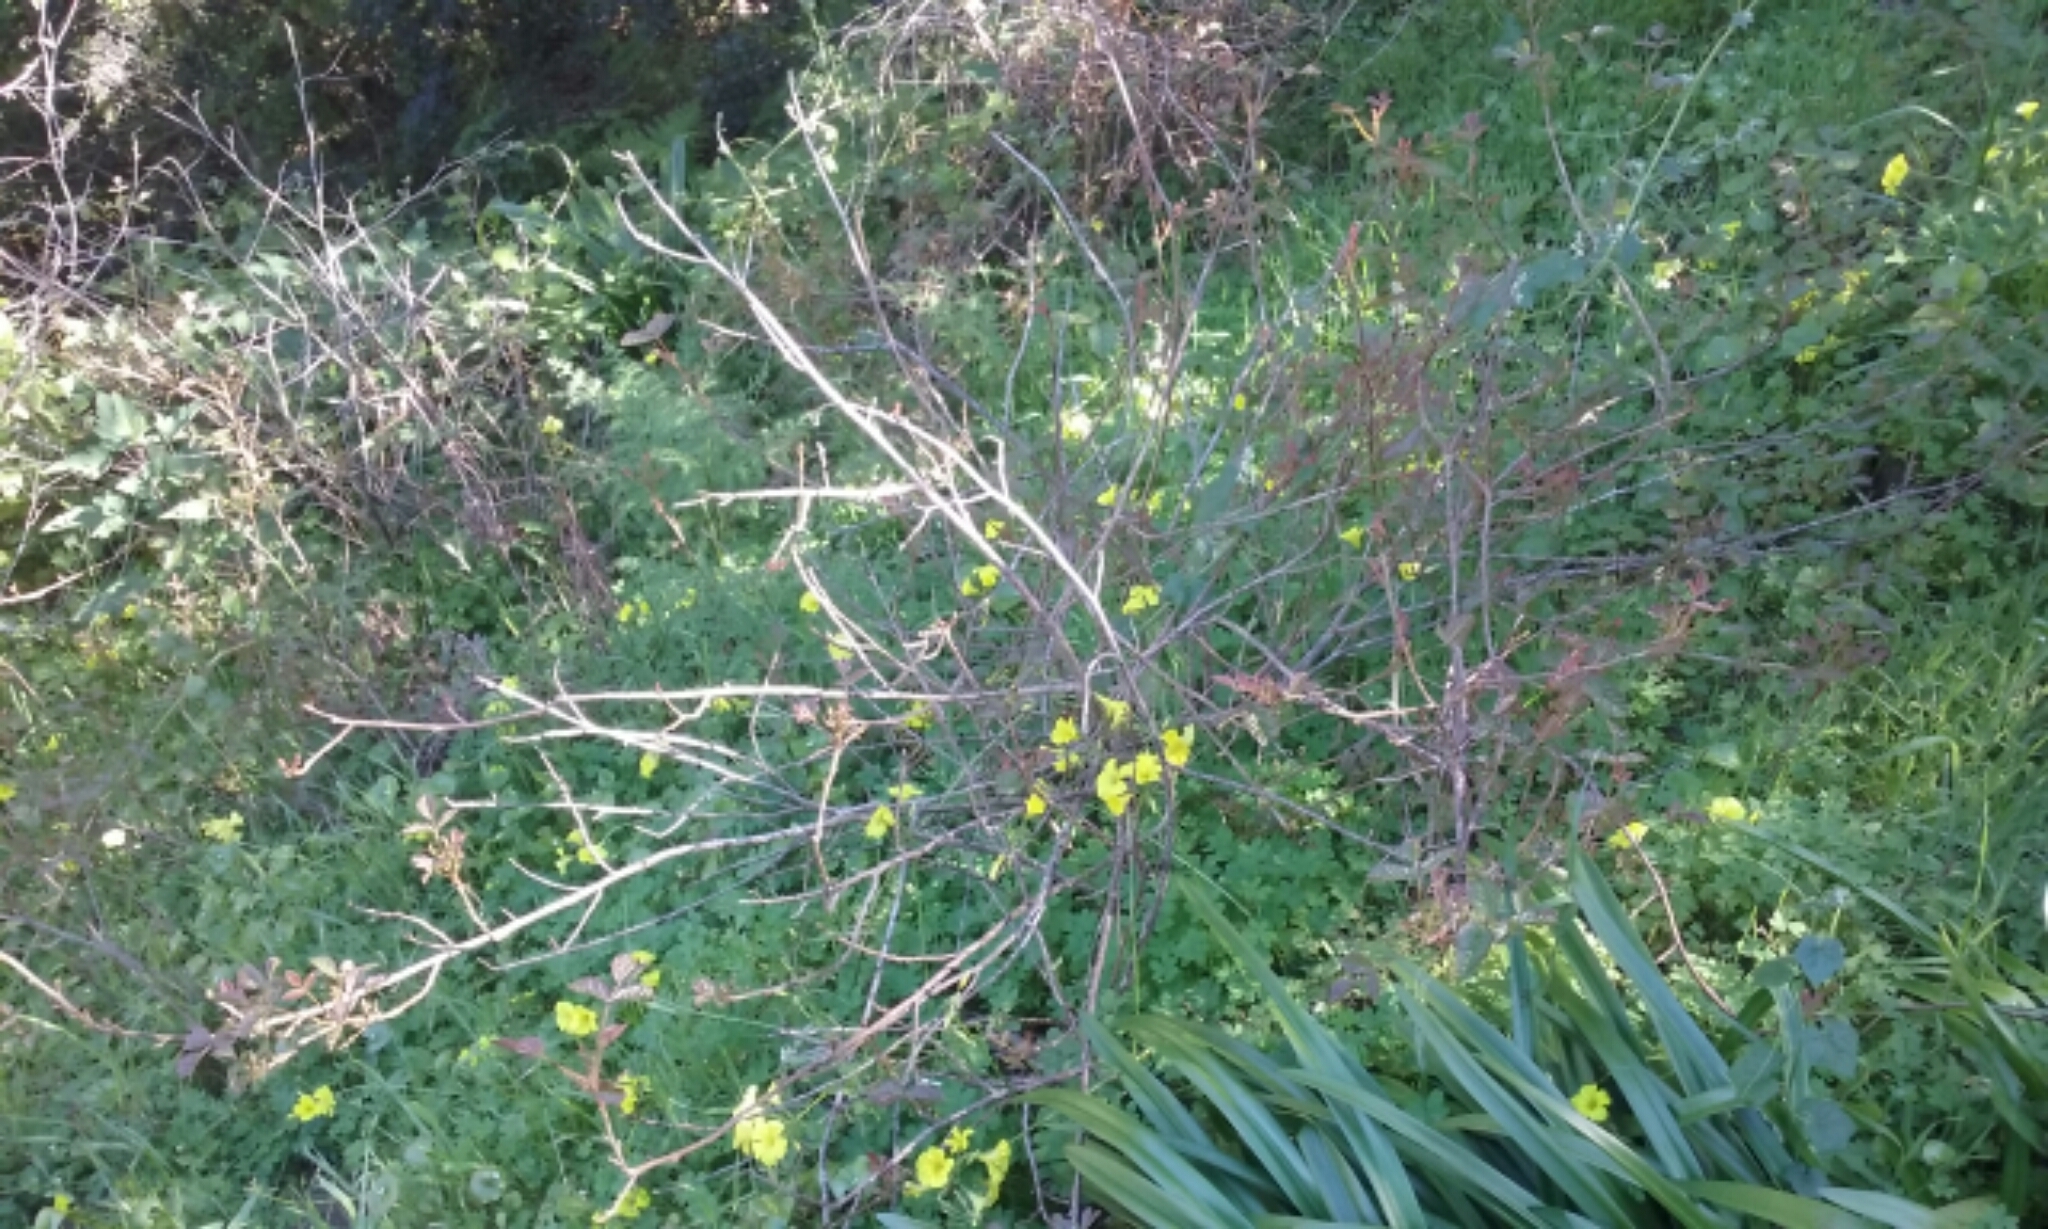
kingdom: Plantae
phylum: Tracheophyta
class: Magnoliopsida
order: Sapindales
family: Anacardiaceae
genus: Toxicodendron
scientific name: Toxicodendron diversilobum
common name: Pacific poison-oak
